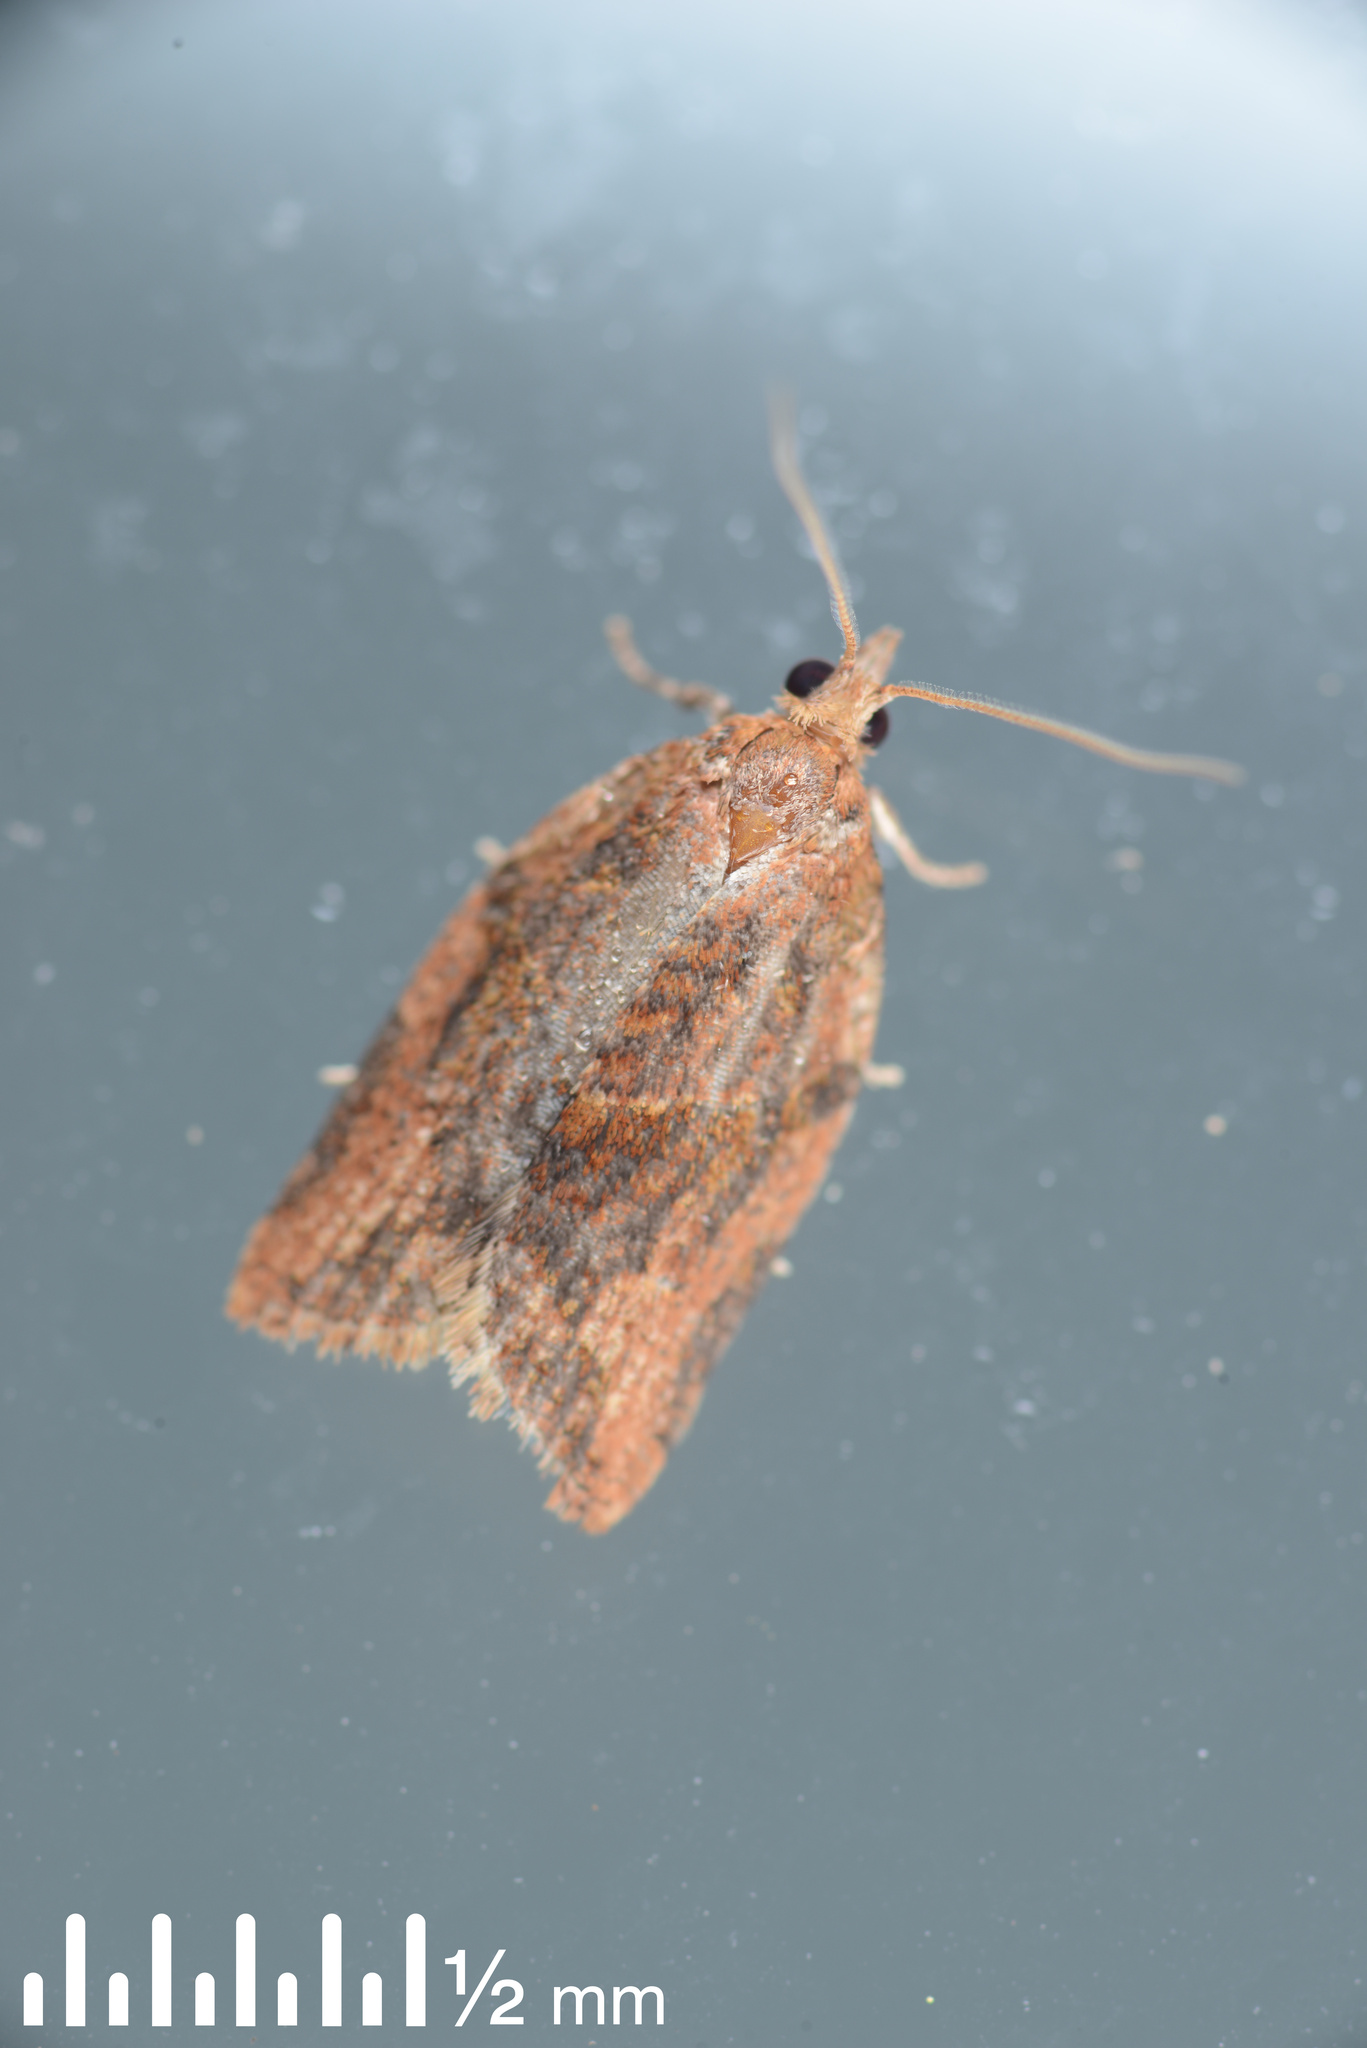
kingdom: Animalia
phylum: Arthropoda
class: Insecta
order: Lepidoptera
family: Tortricidae
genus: Epiphyas
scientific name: Epiphyas postvittana
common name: Light brown apple moth
